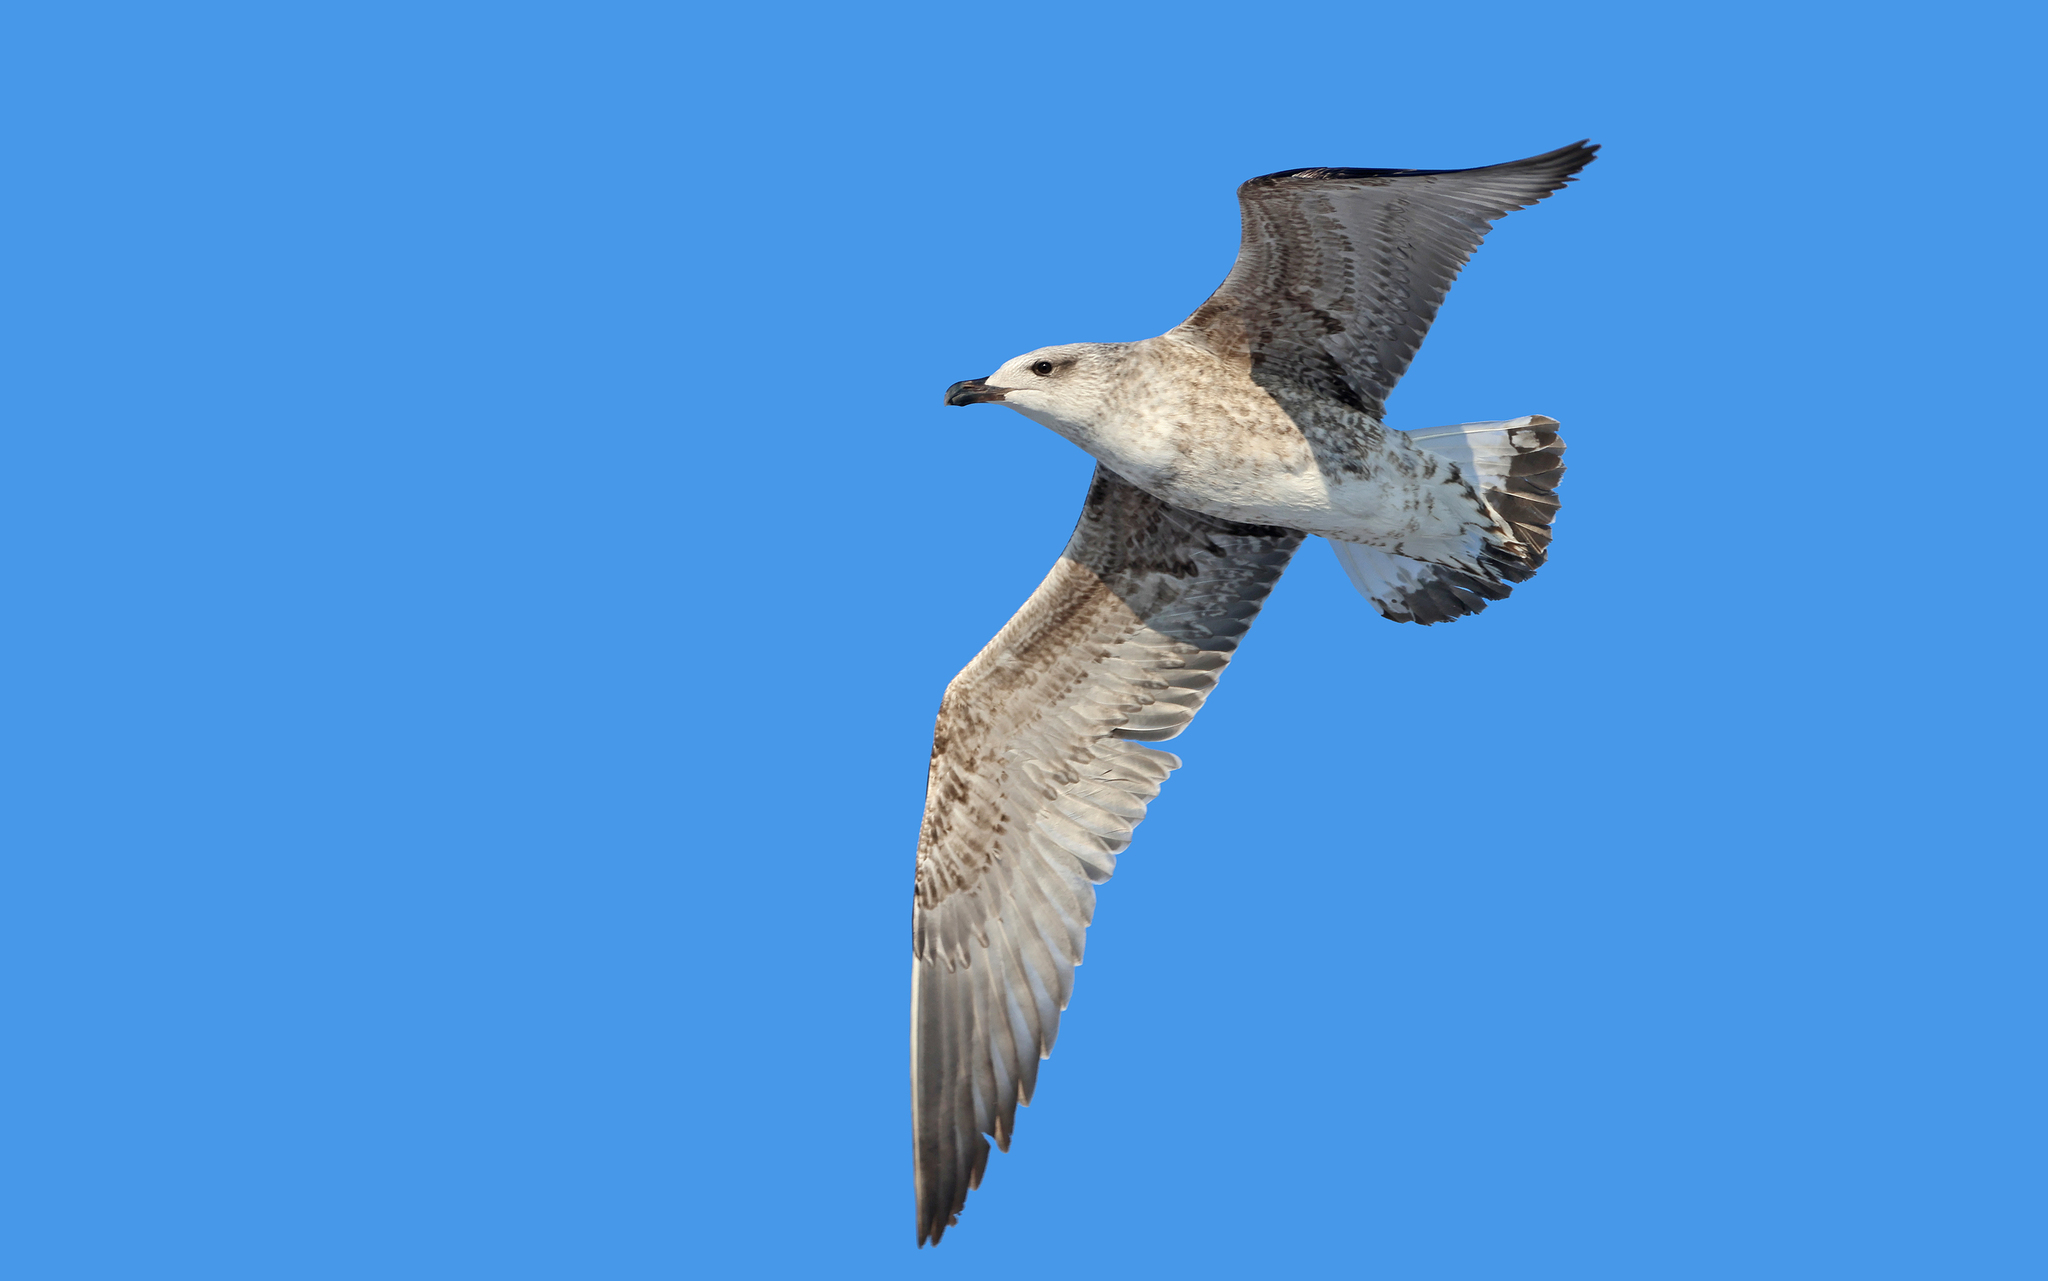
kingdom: Animalia
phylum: Chordata
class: Aves
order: Charadriiformes
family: Laridae
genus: Larus
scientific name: Larus michahellis
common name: Yellow-legged gull
